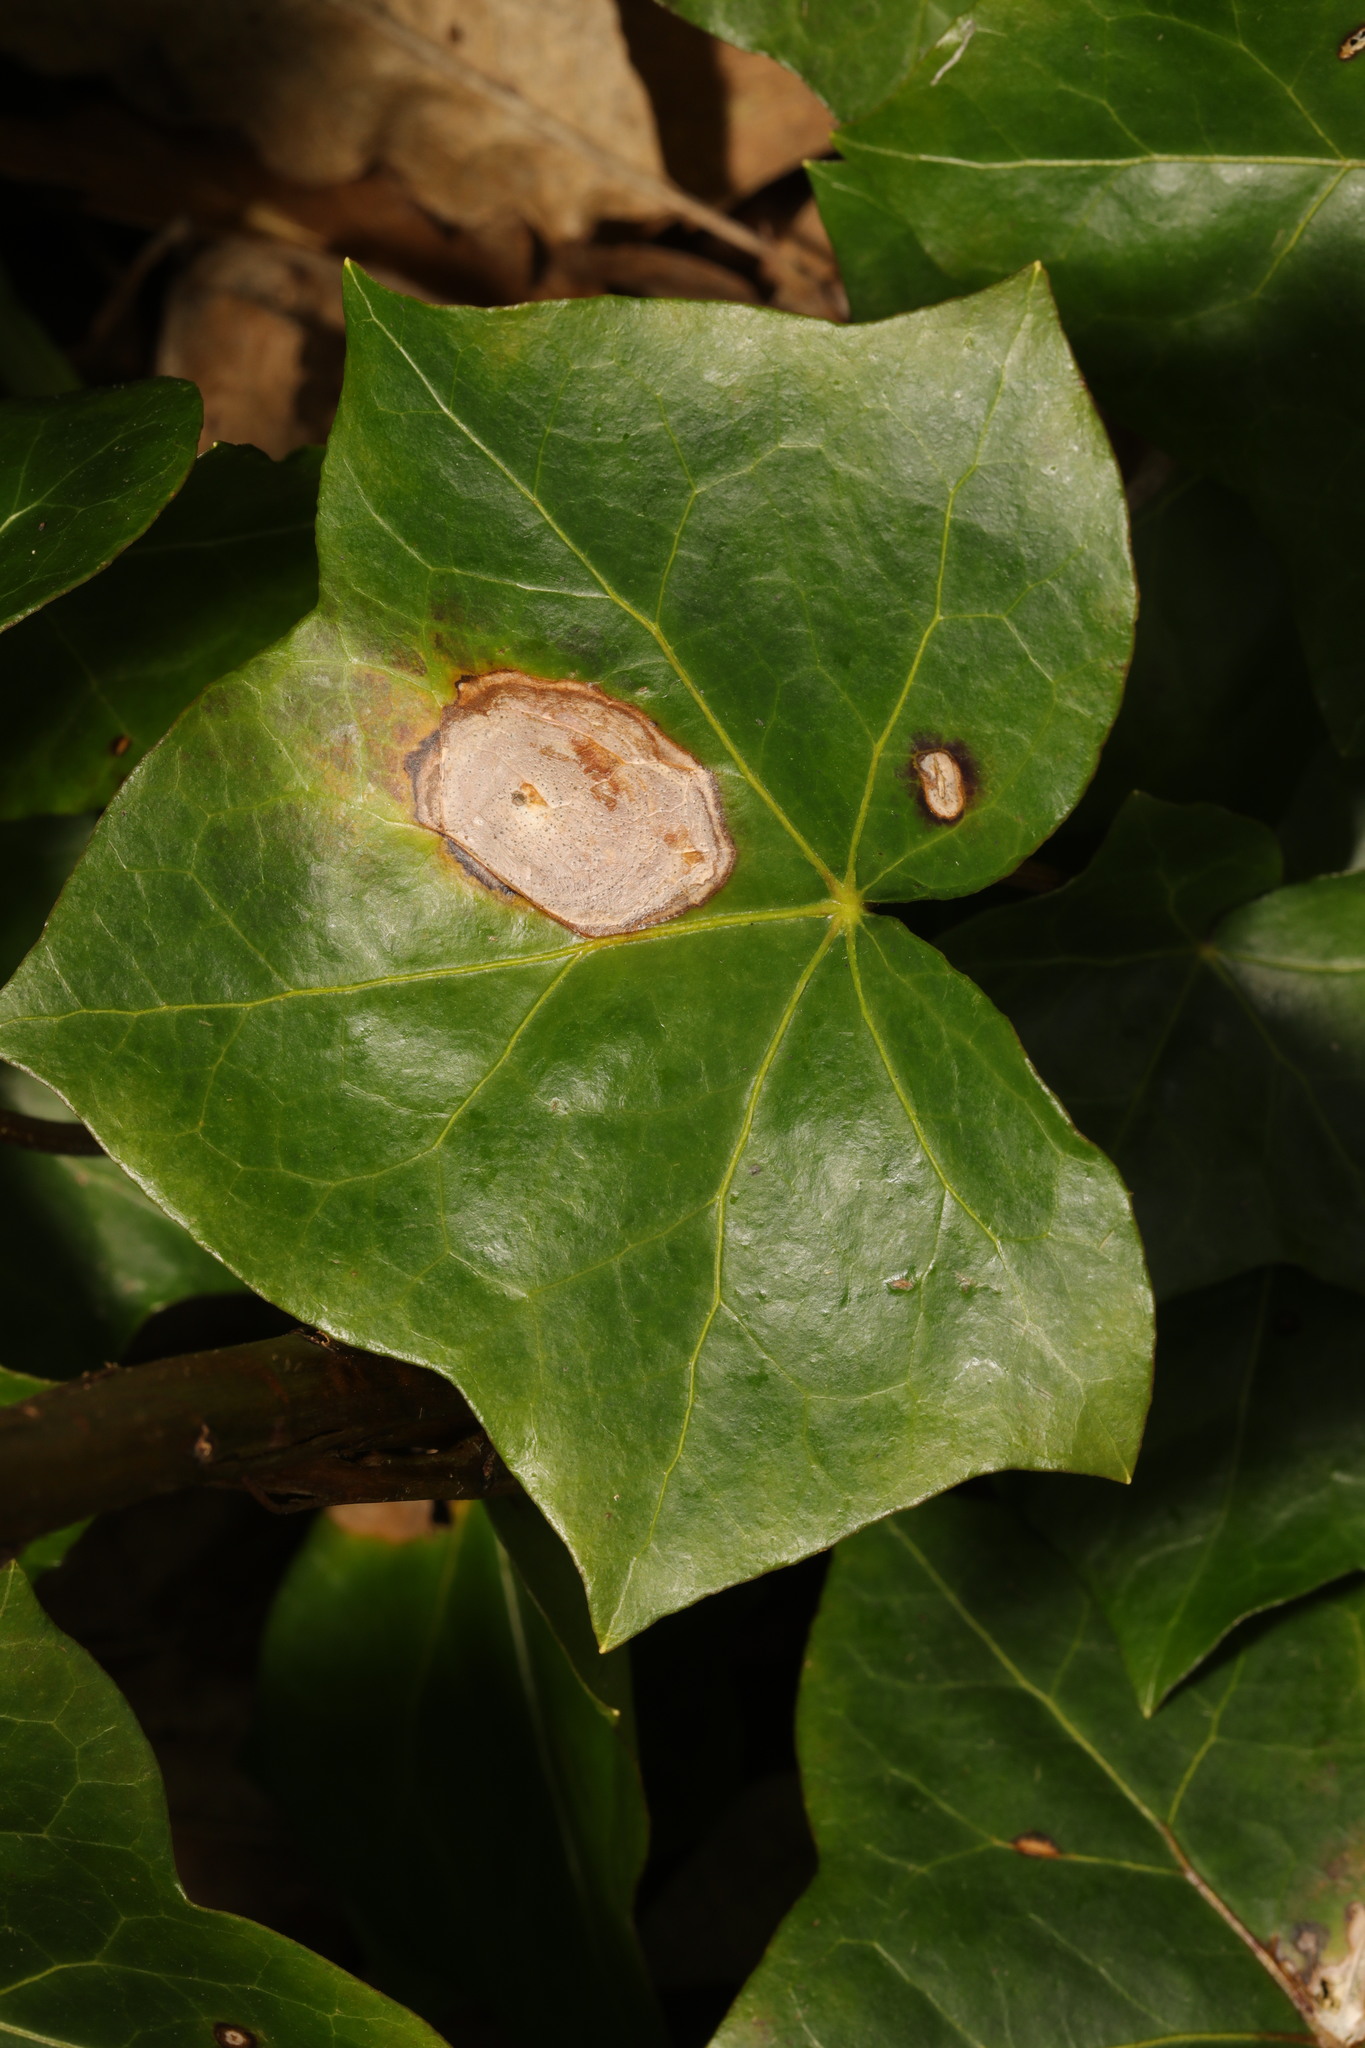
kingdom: Fungi
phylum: Ascomycota
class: Dothideomycetes
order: Pleosporales
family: Didymellaceae
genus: Boeremia
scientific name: Boeremia hedericola
